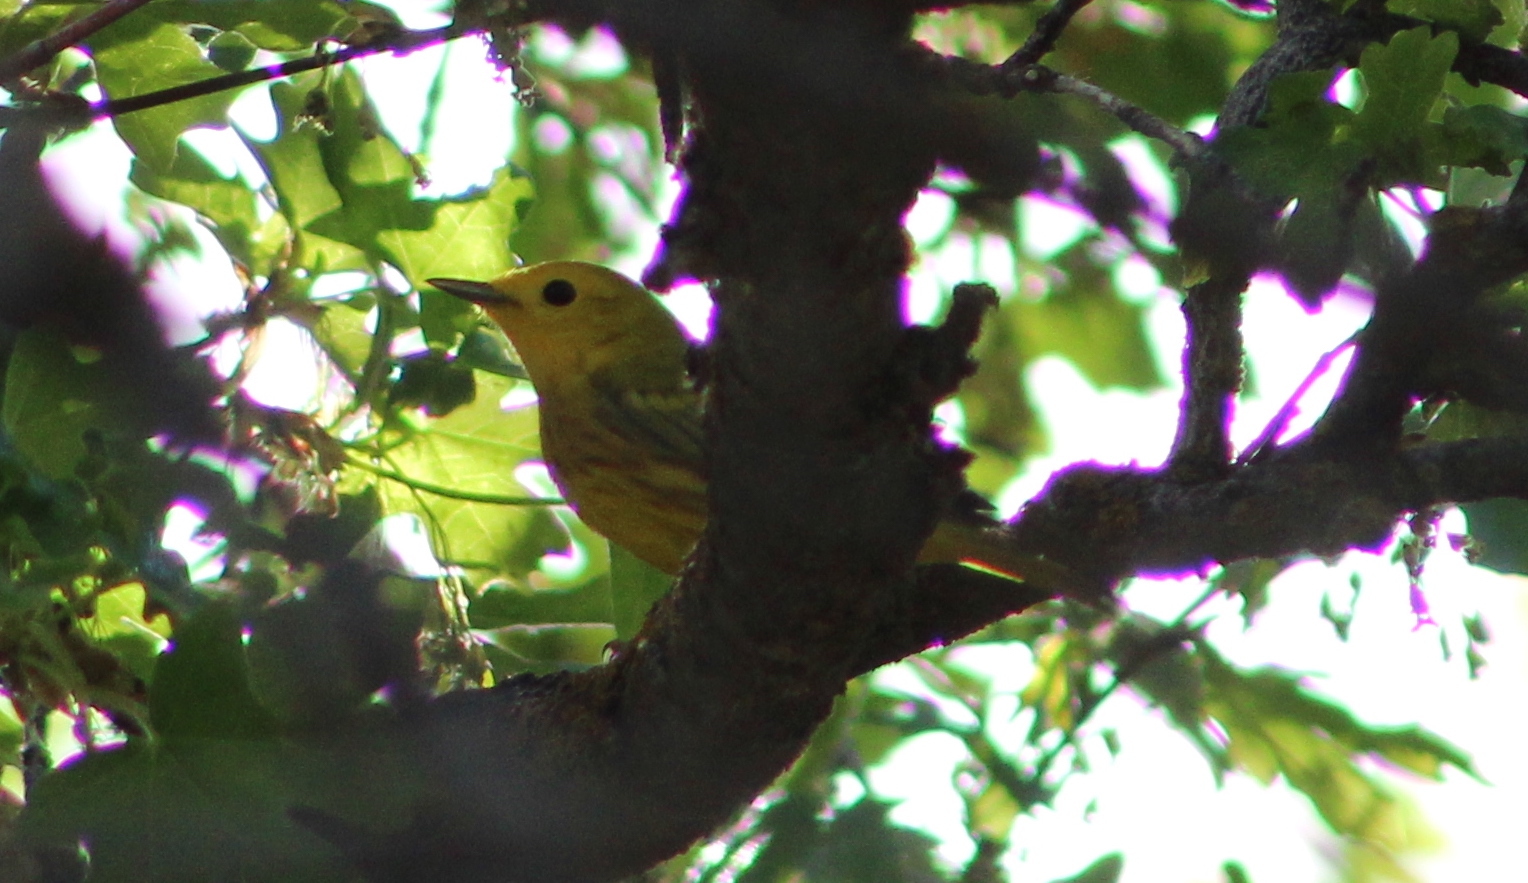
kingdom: Animalia
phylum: Chordata
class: Aves
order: Passeriformes
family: Parulidae
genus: Setophaga
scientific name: Setophaga petechia
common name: Yellow warbler
